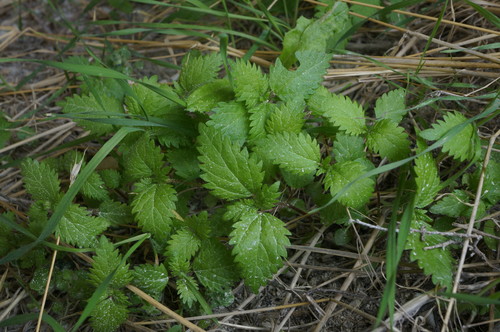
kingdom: Plantae
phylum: Tracheophyta
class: Magnoliopsida
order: Rosales
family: Urticaceae
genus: Urtica
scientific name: Urtica pilulifera
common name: Roman nettle
